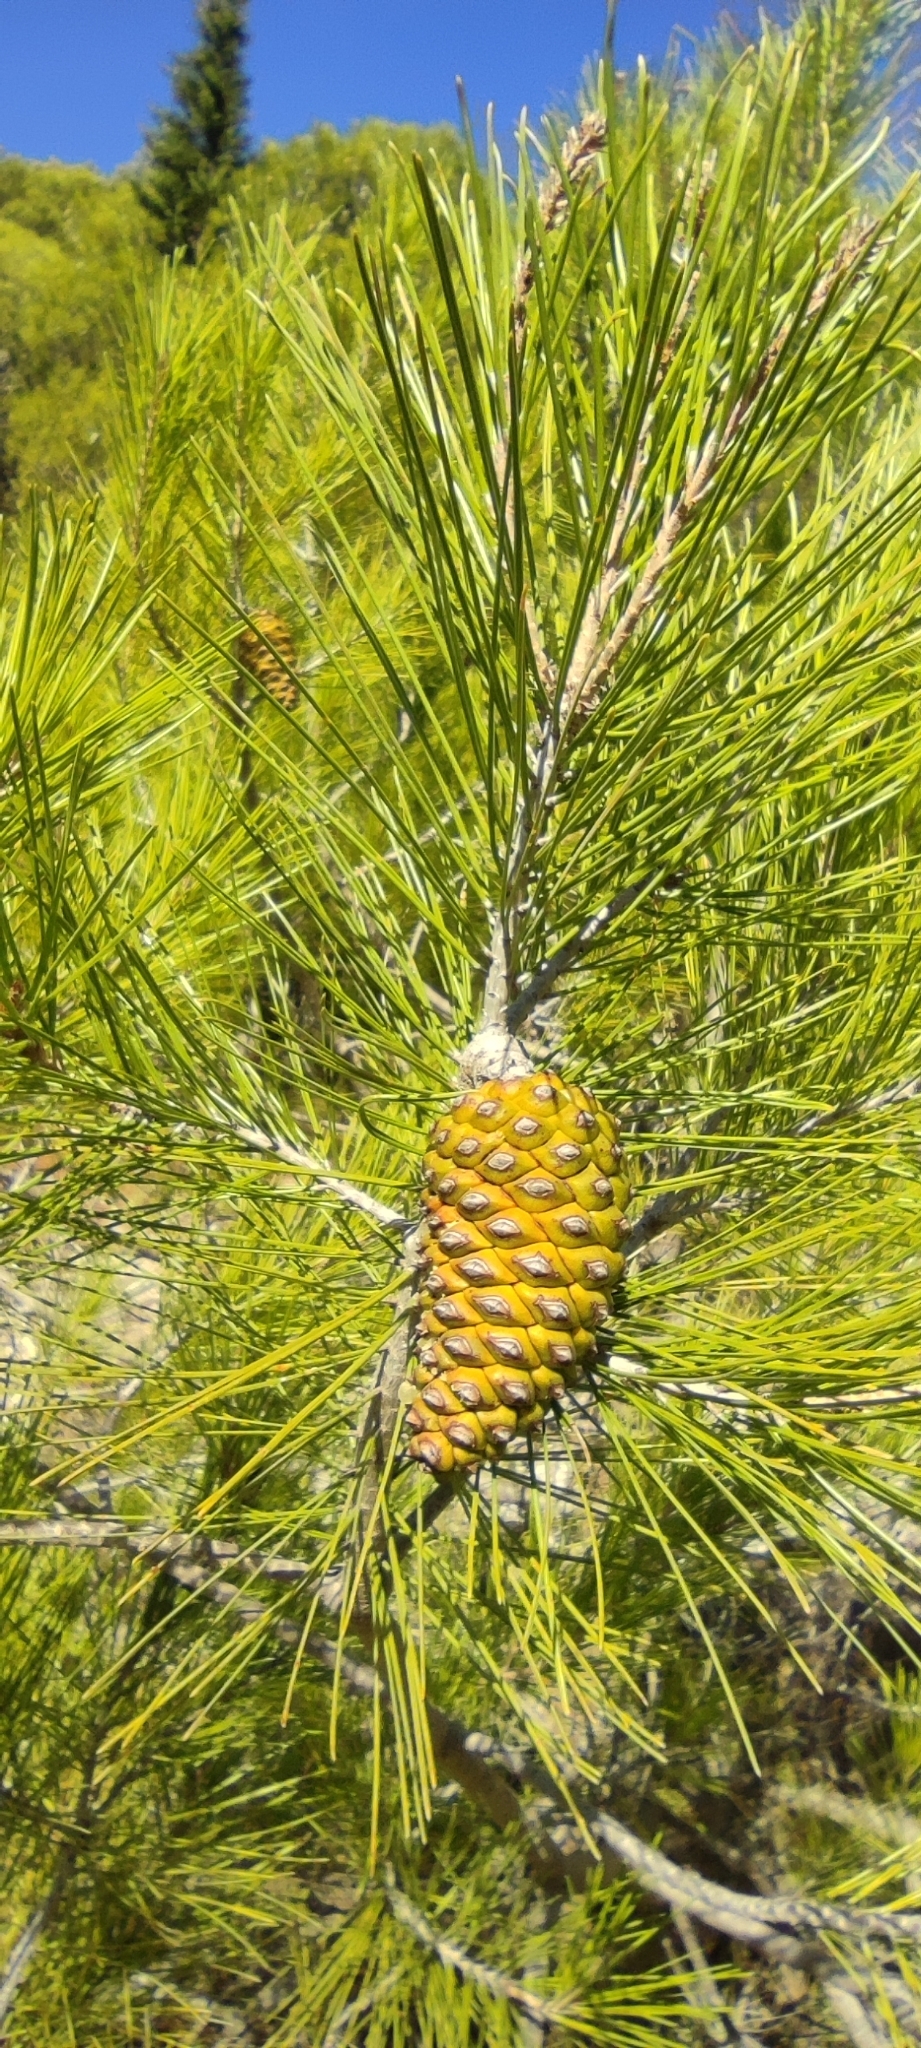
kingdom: Plantae
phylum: Tracheophyta
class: Pinopsida
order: Pinales
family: Pinaceae
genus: Pinus
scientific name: Pinus halepensis
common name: Aleppo pine
